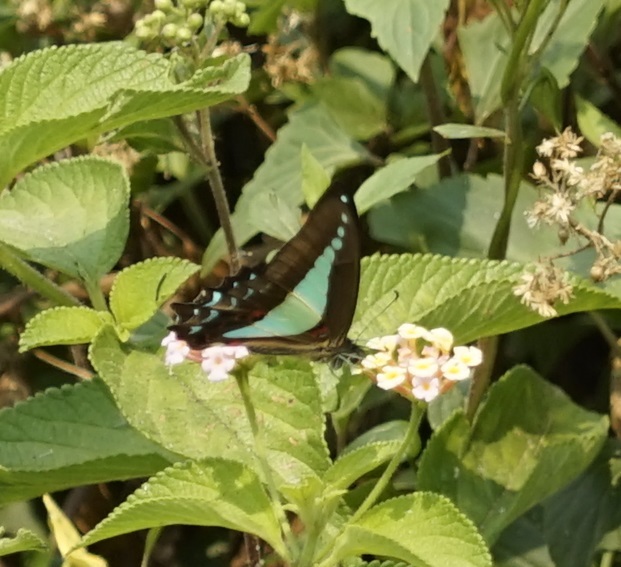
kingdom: Animalia
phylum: Arthropoda
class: Insecta
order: Lepidoptera
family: Papilionidae
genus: Graphium
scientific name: Graphium
